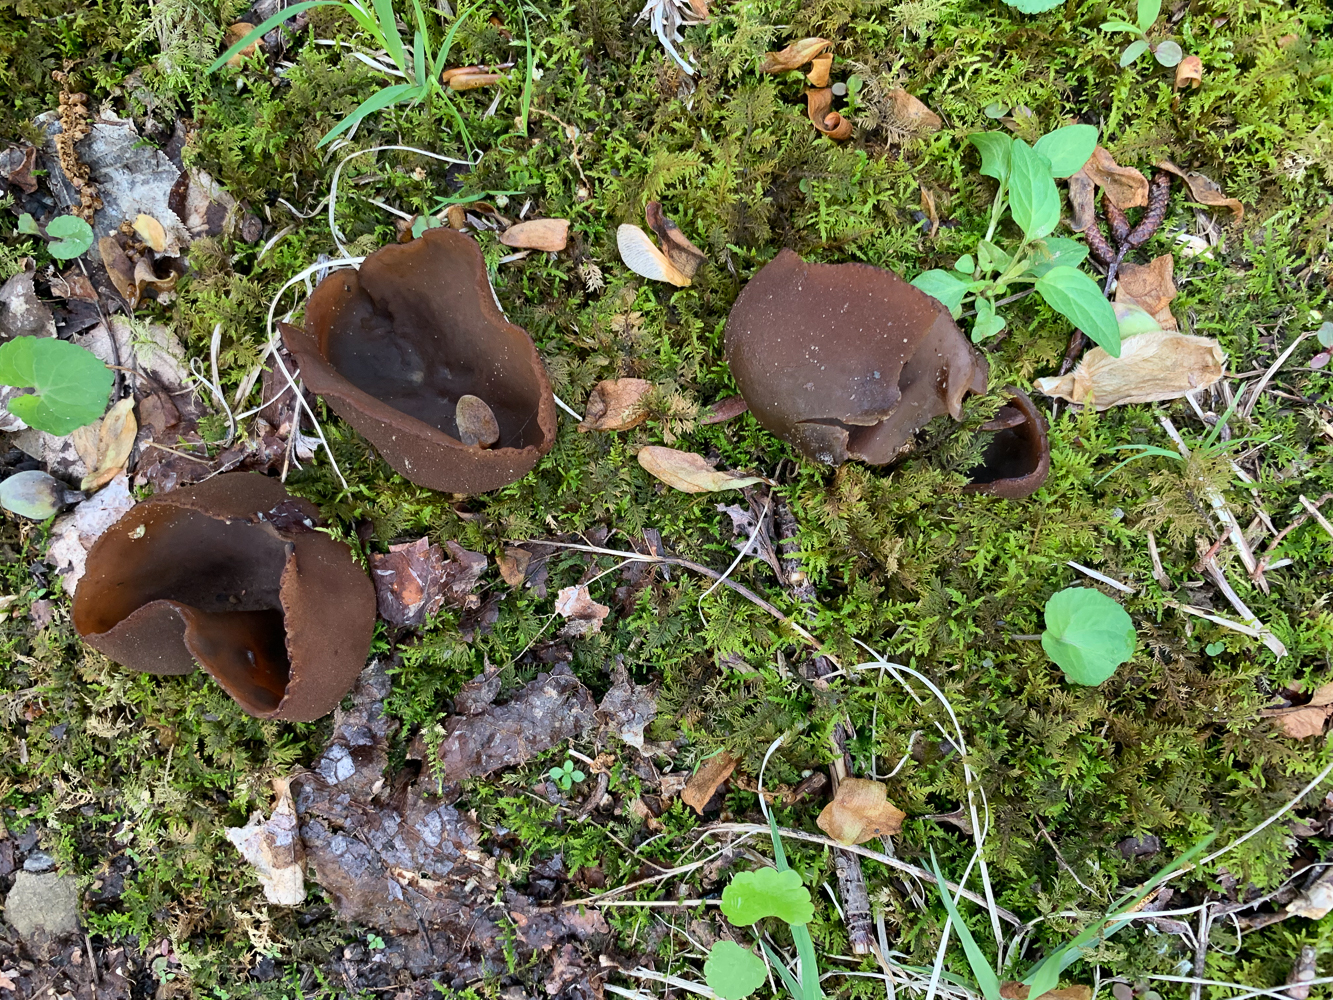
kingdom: Fungi
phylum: Ascomycota
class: Pezizomycetes
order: Pezizales
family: Pezizaceae
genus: Phylloscypha
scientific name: Phylloscypha phyllogena
